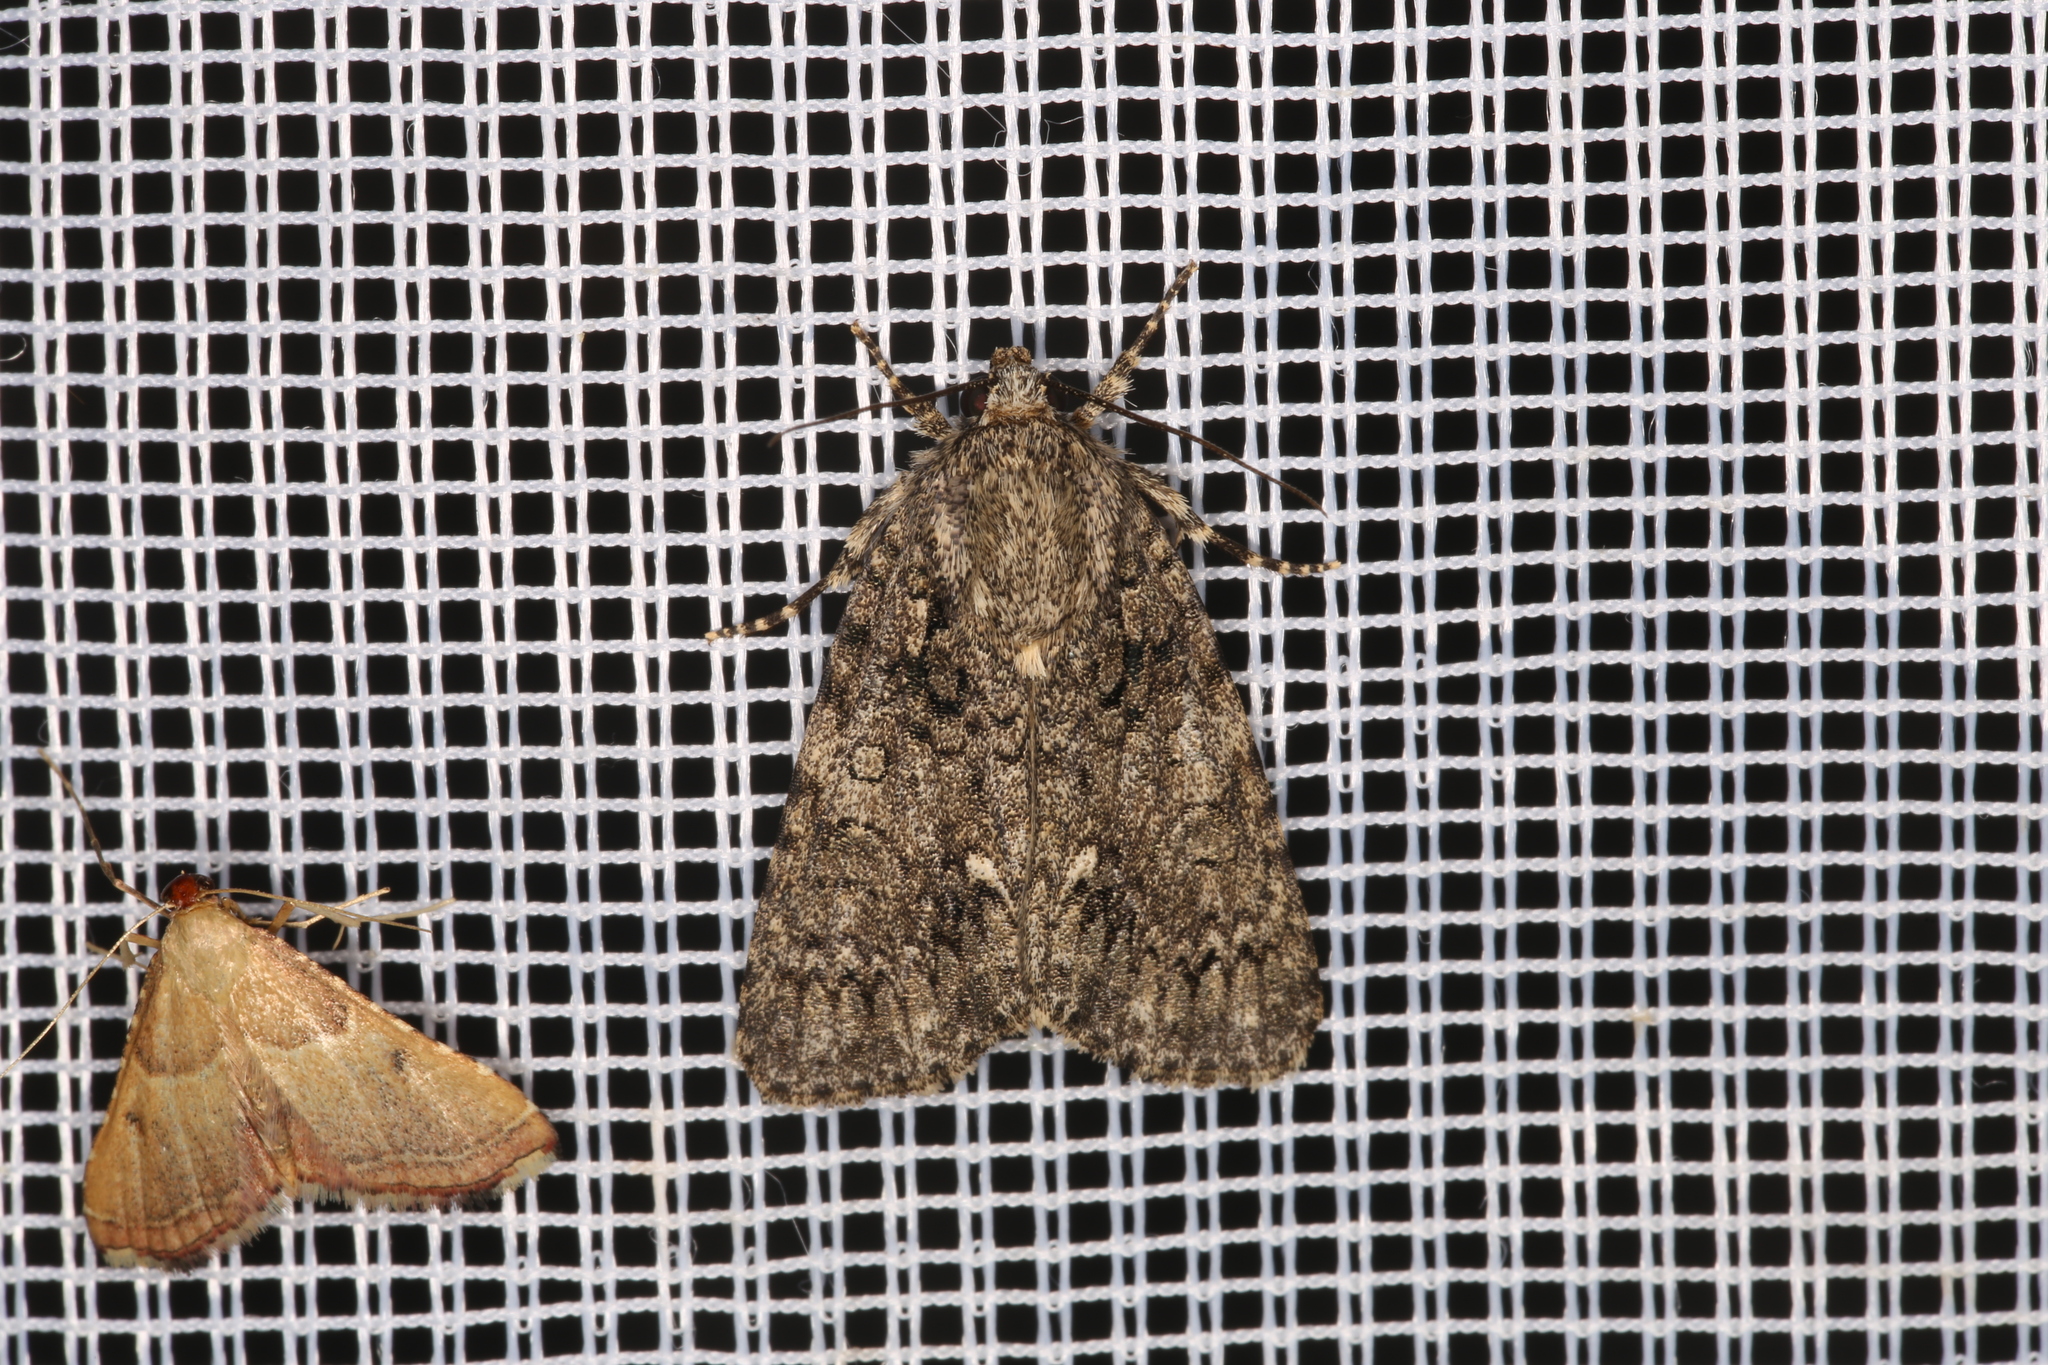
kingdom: Animalia
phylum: Arthropoda
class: Insecta
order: Lepidoptera
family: Noctuidae
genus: Acronicta
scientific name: Acronicta rumicis
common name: Knot grass
